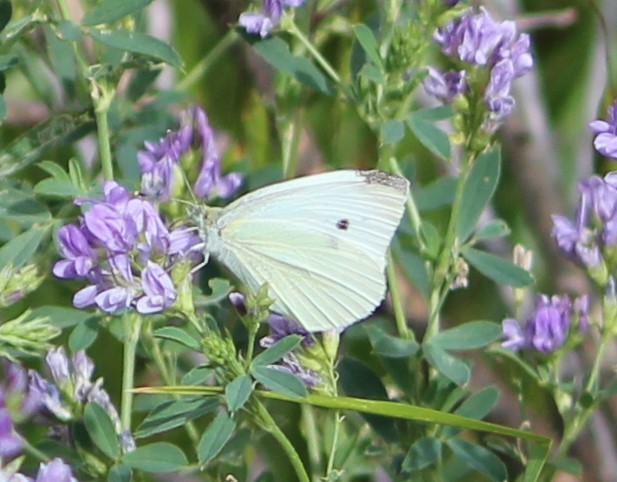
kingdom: Animalia
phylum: Arthropoda
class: Insecta
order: Lepidoptera
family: Pieridae
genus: Pieris
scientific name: Pieris rapae
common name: Small white
